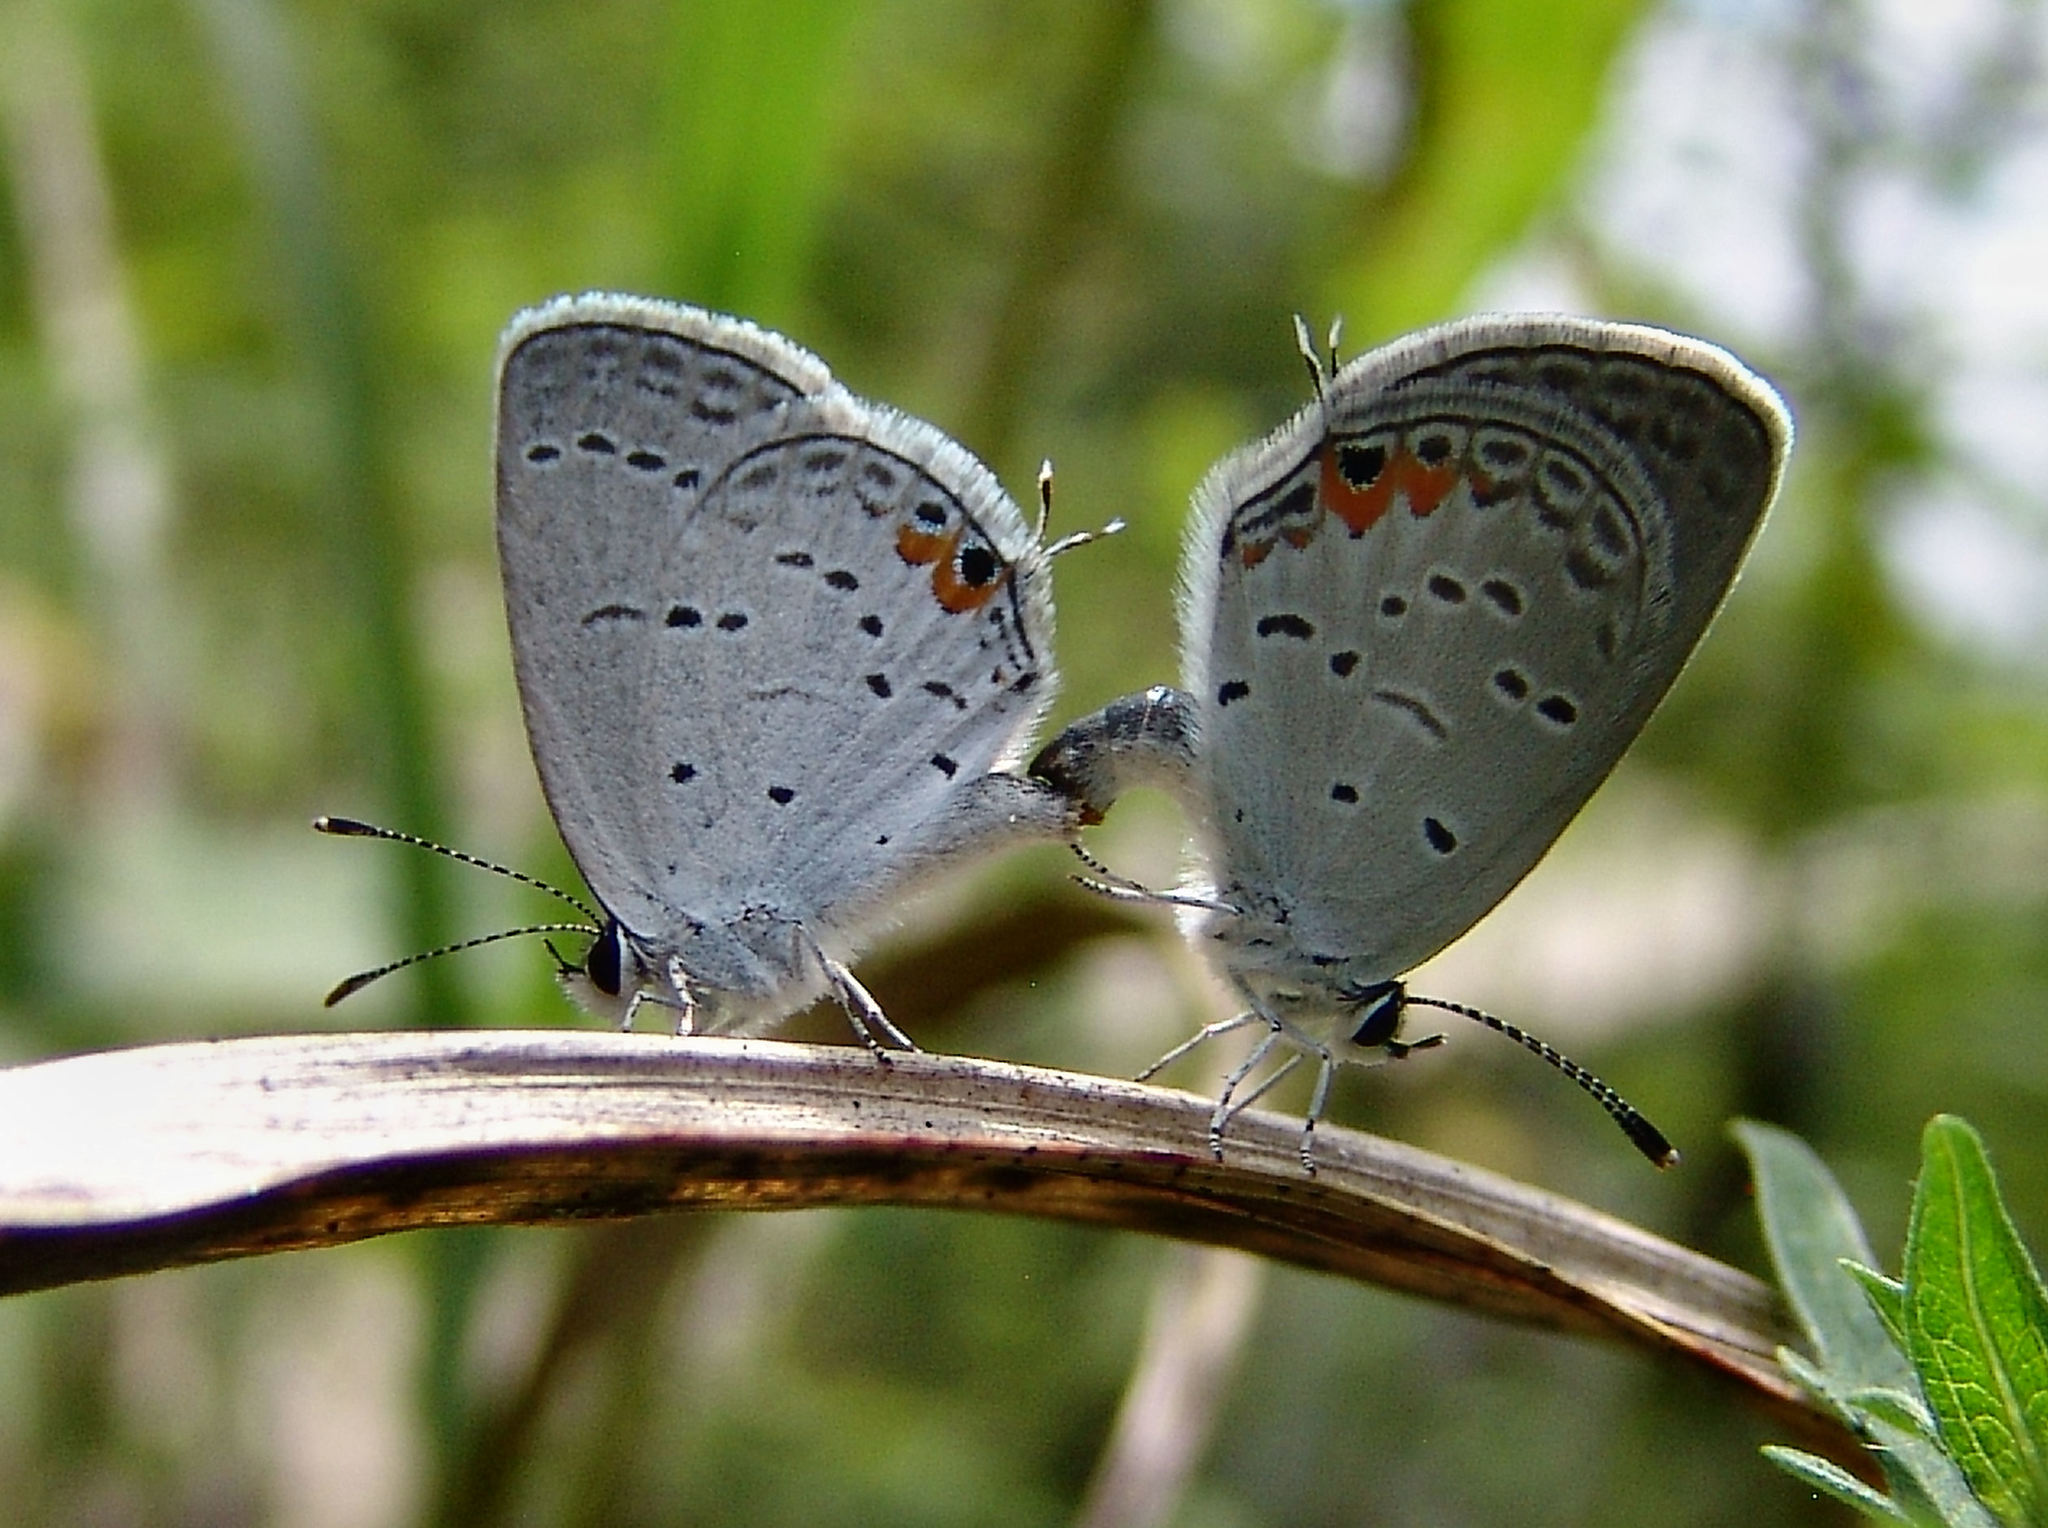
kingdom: Animalia
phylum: Arthropoda
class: Insecta
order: Lepidoptera
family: Lycaenidae
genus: Elkalyce
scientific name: Elkalyce comyntas
